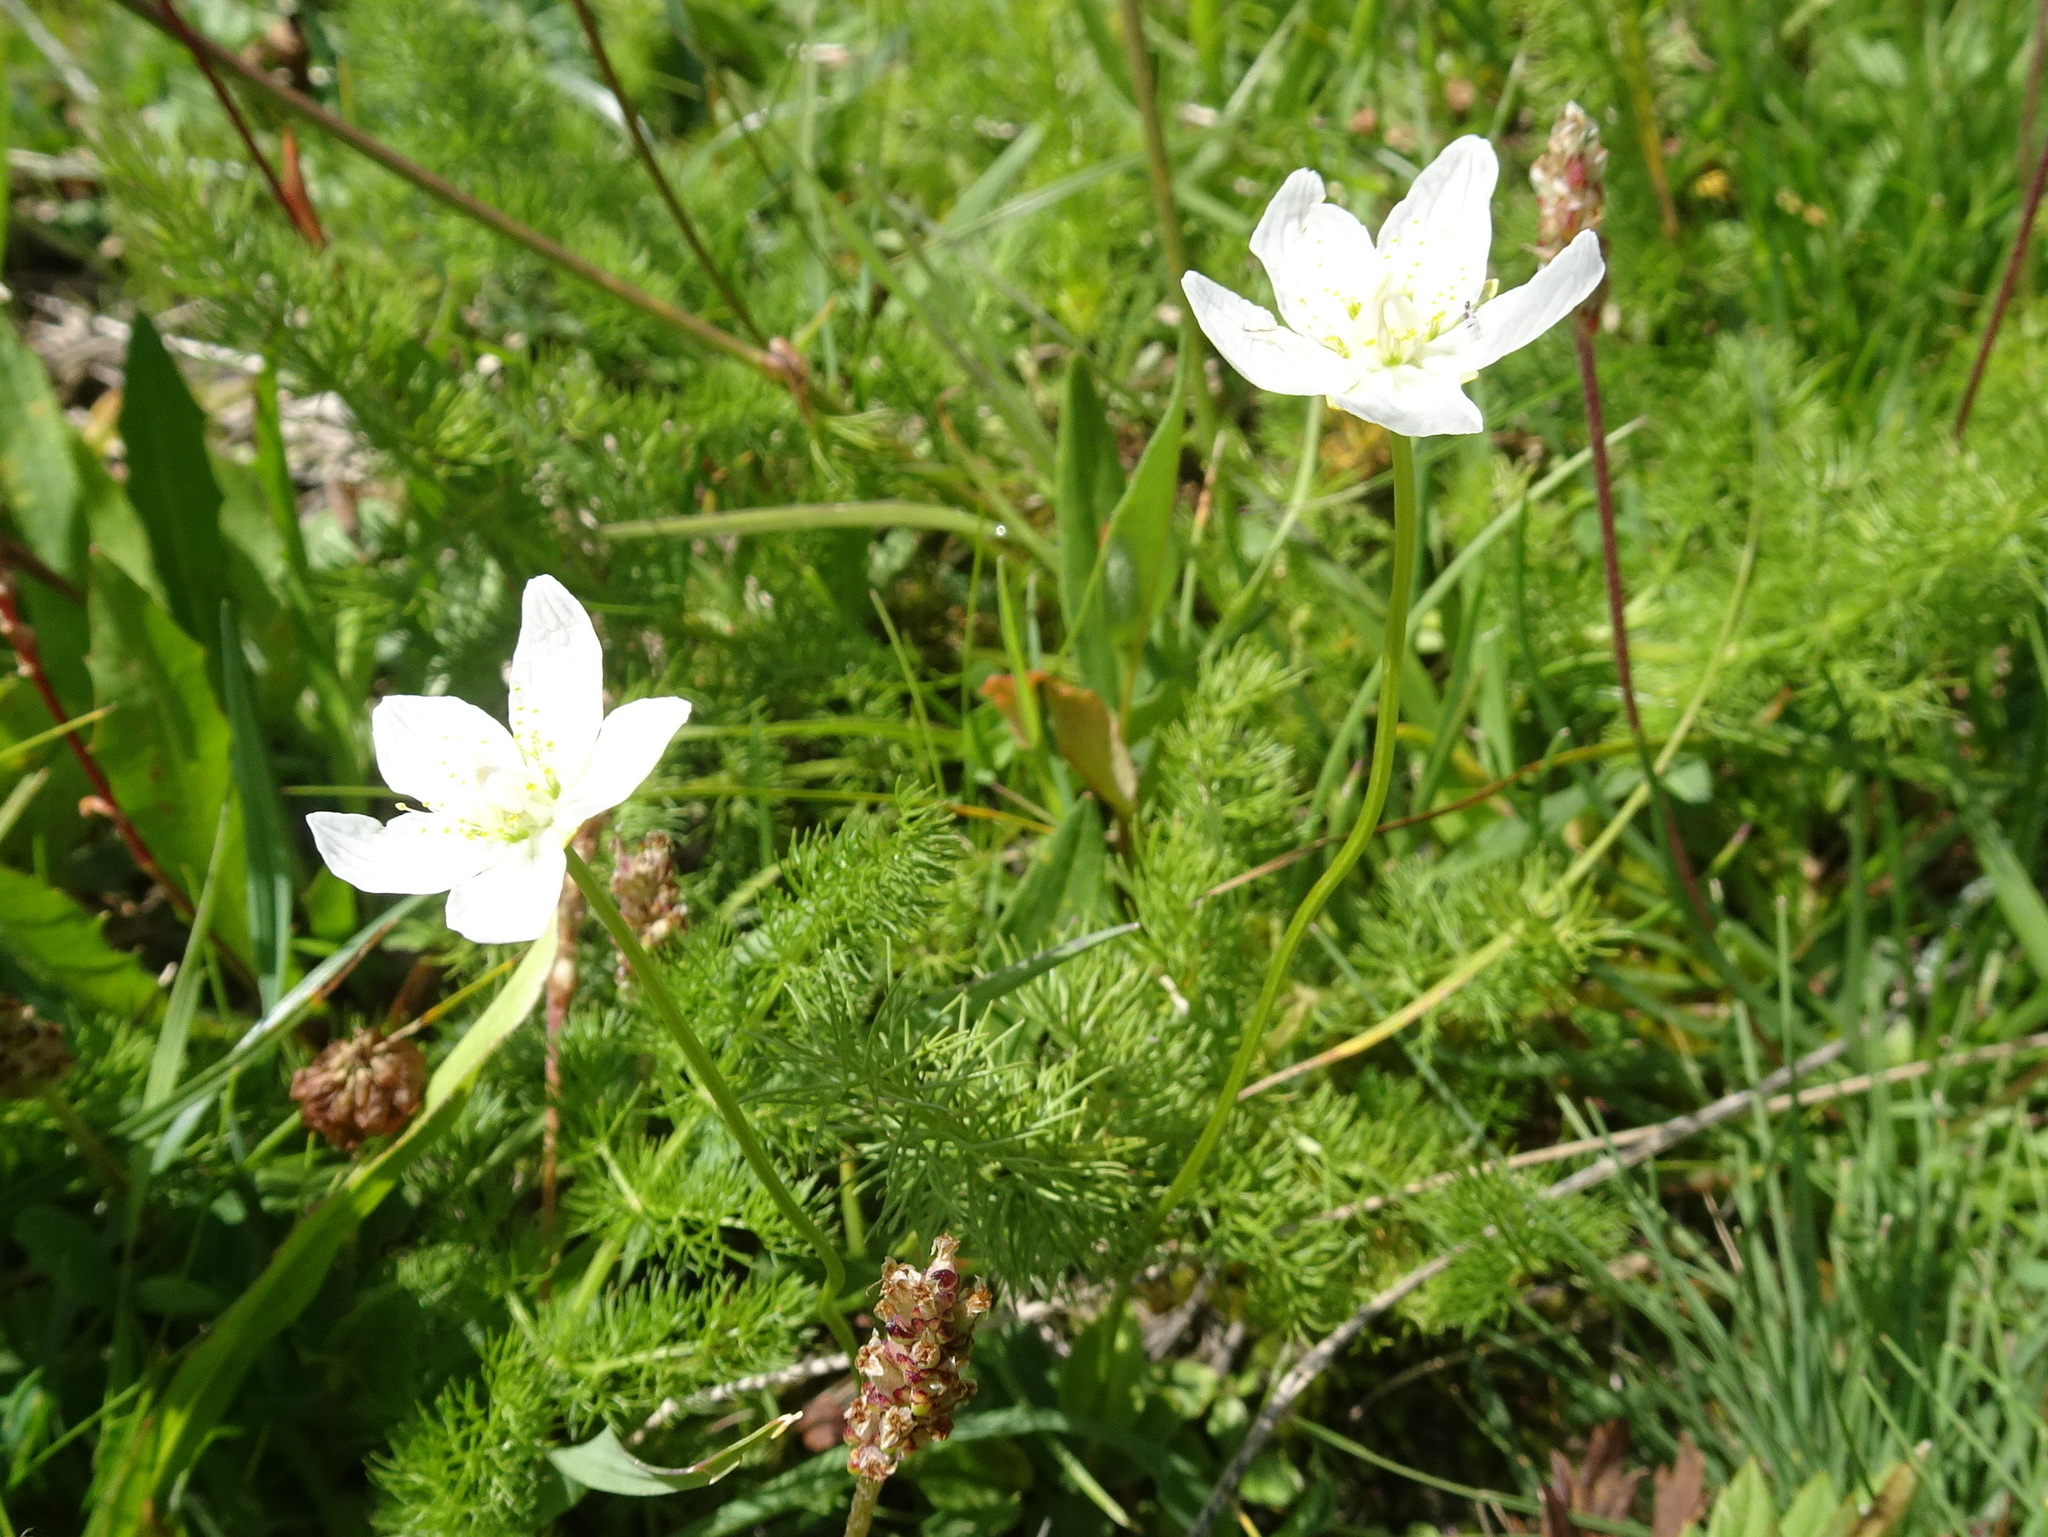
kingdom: Plantae
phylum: Tracheophyta
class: Magnoliopsida
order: Celastrales
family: Parnassiaceae
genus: Parnassia
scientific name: Parnassia palustris
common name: Grass-of-parnassus
